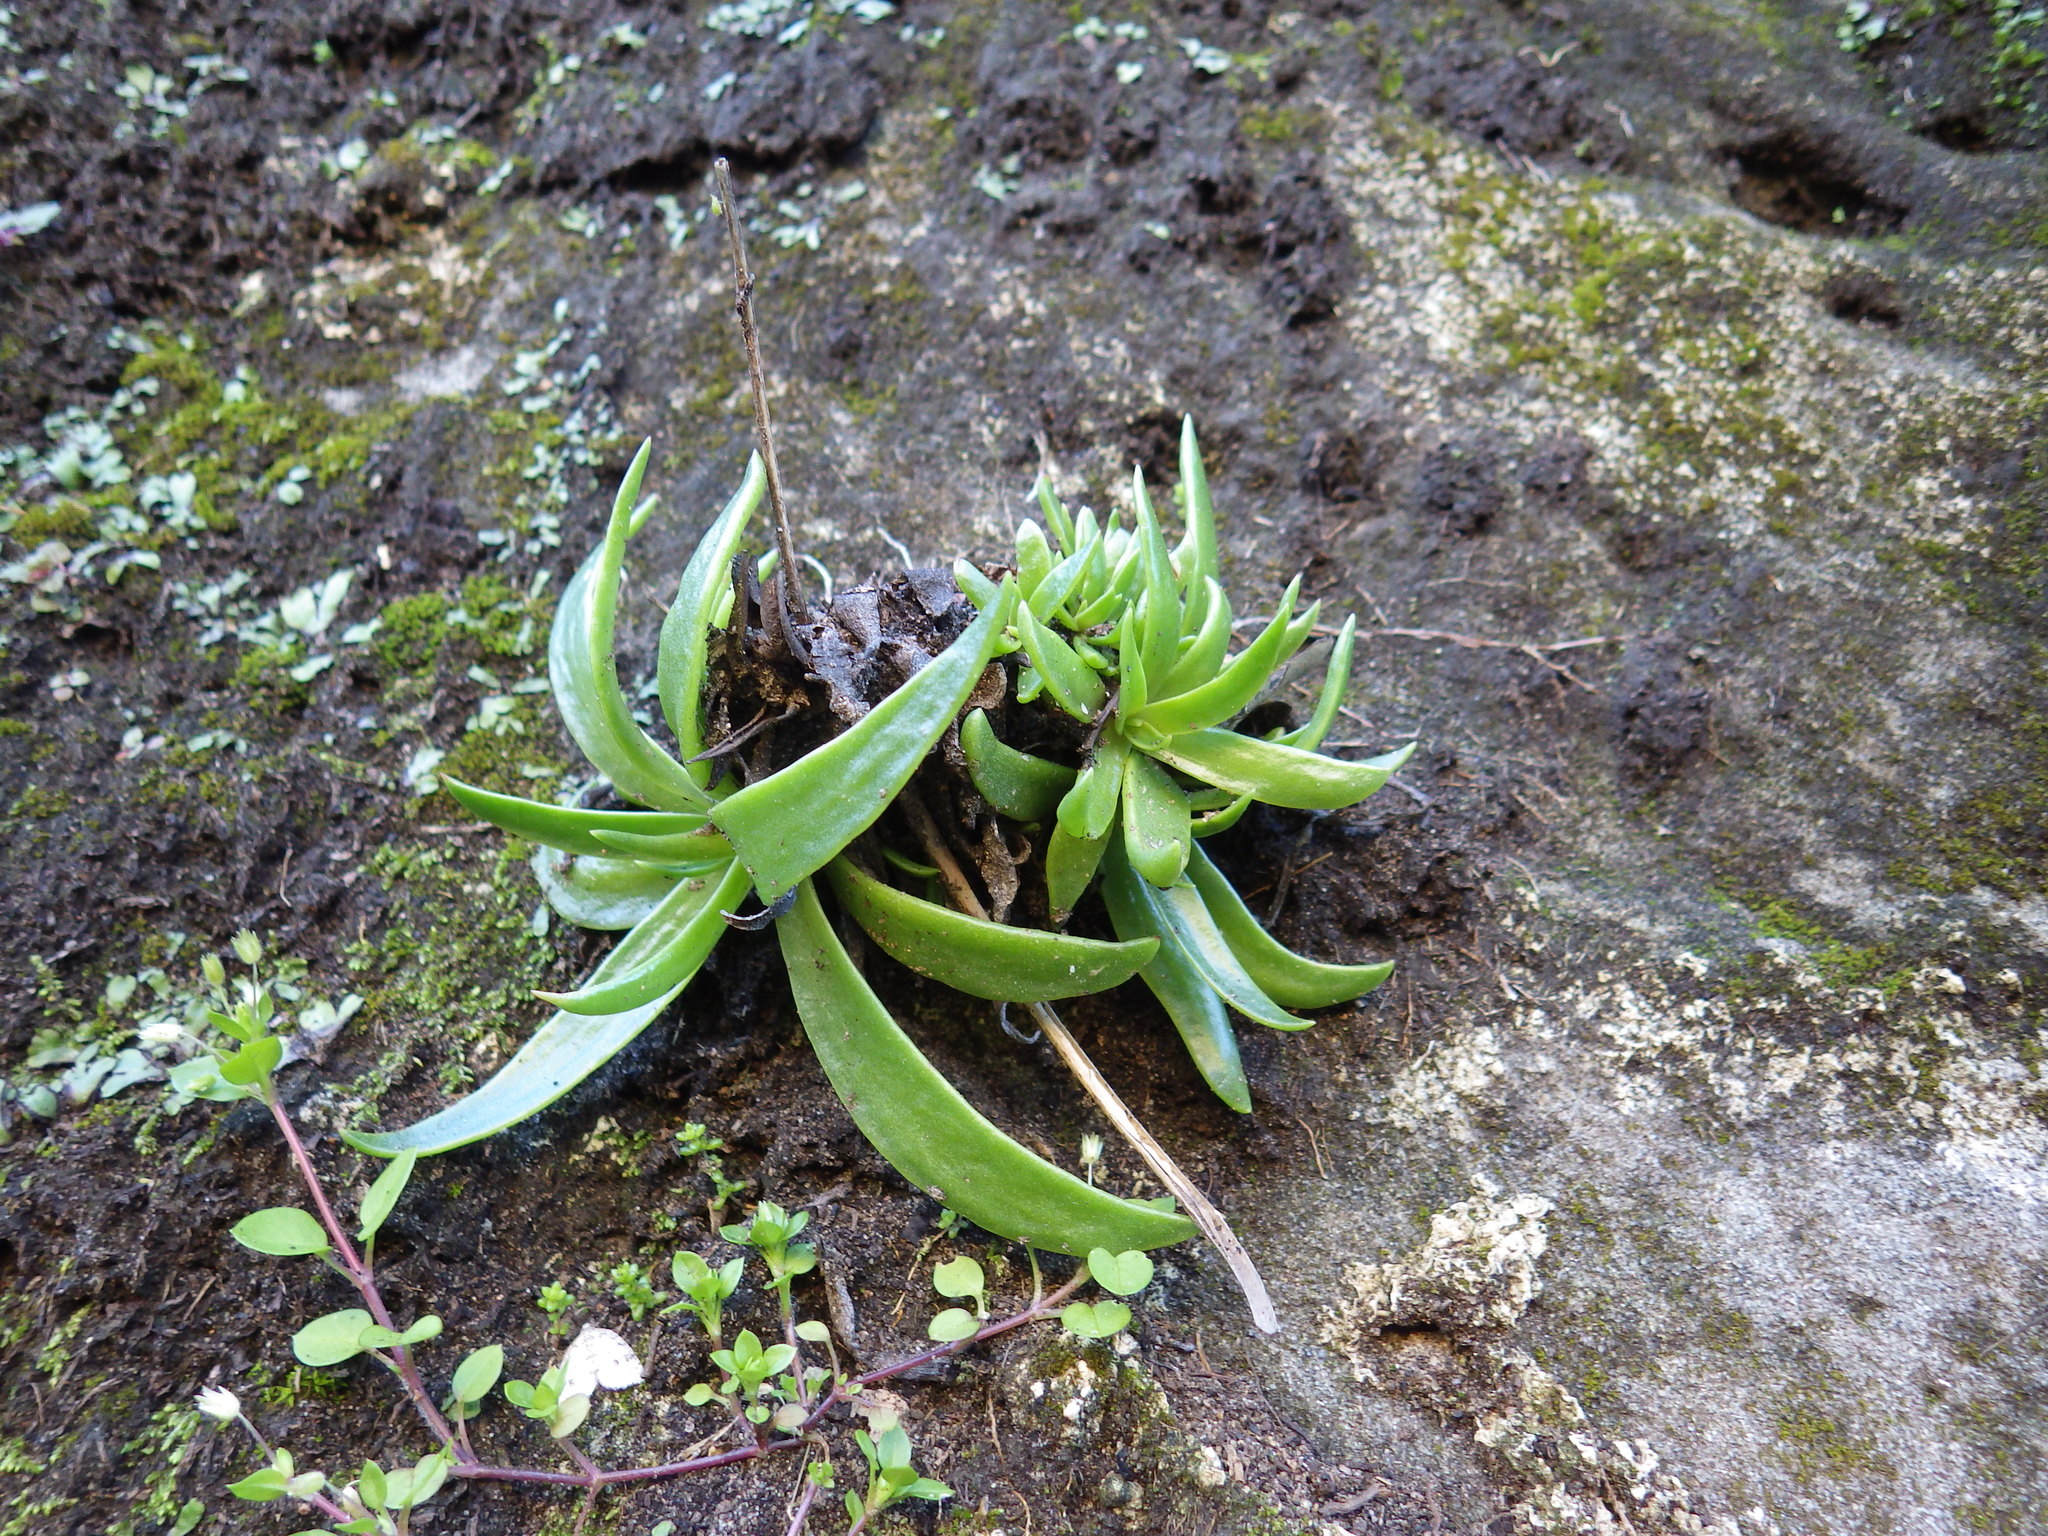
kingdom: Plantae
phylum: Tracheophyta
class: Magnoliopsida
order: Saxifragales
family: Crassulaceae
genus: Dudleya
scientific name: Dudleya lanceolata
